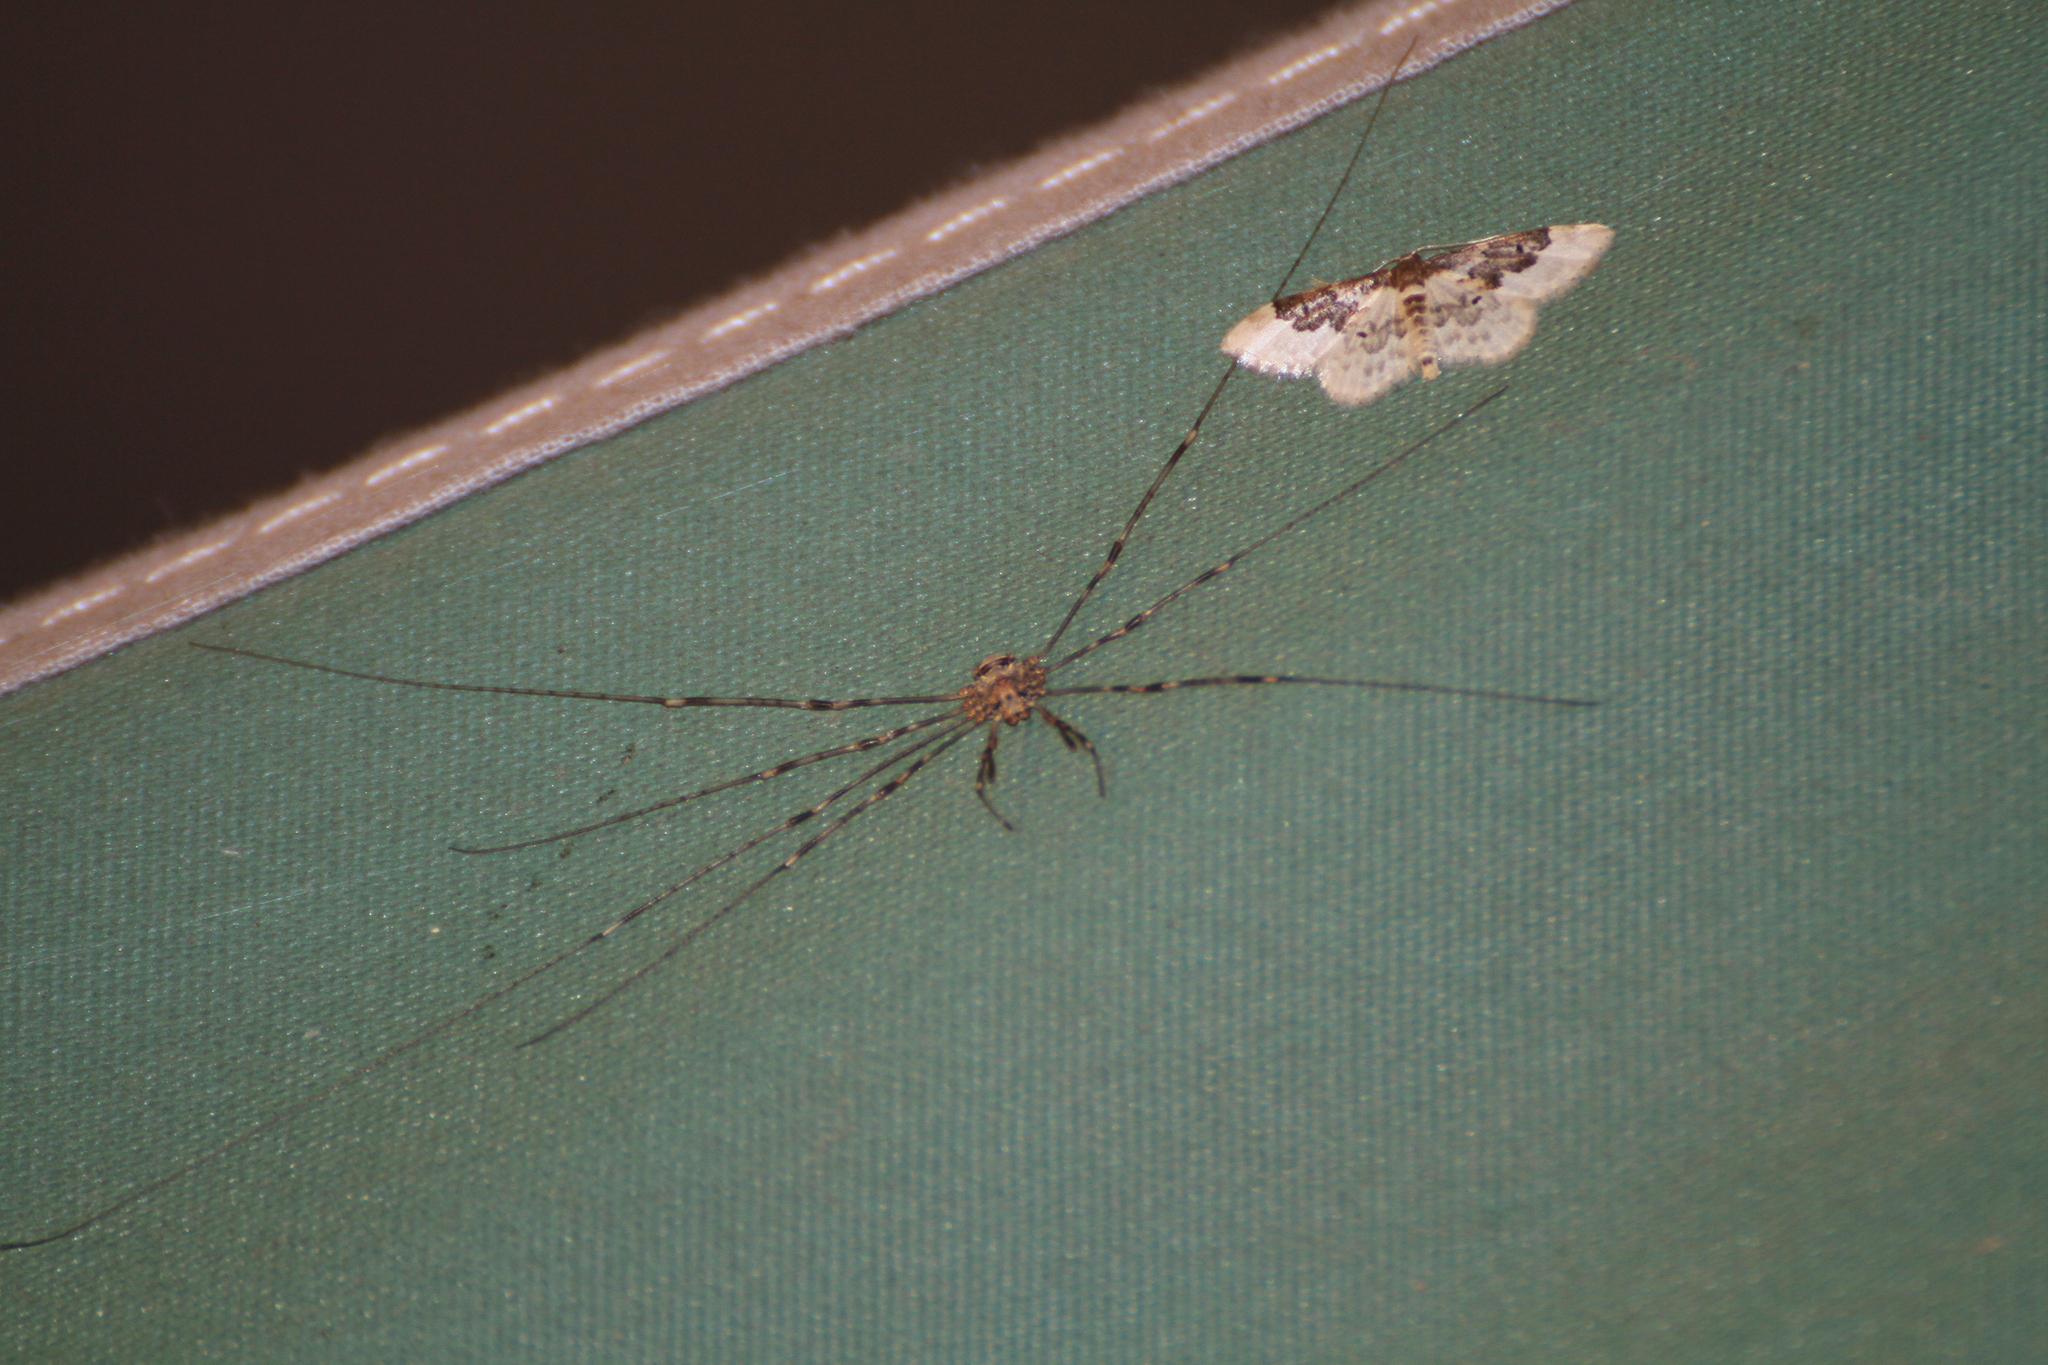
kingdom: Animalia
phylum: Arthropoda
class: Arachnida
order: Opiliones
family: Phalangiidae
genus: Dicranopalpus
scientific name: Dicranopalpus ramosus
